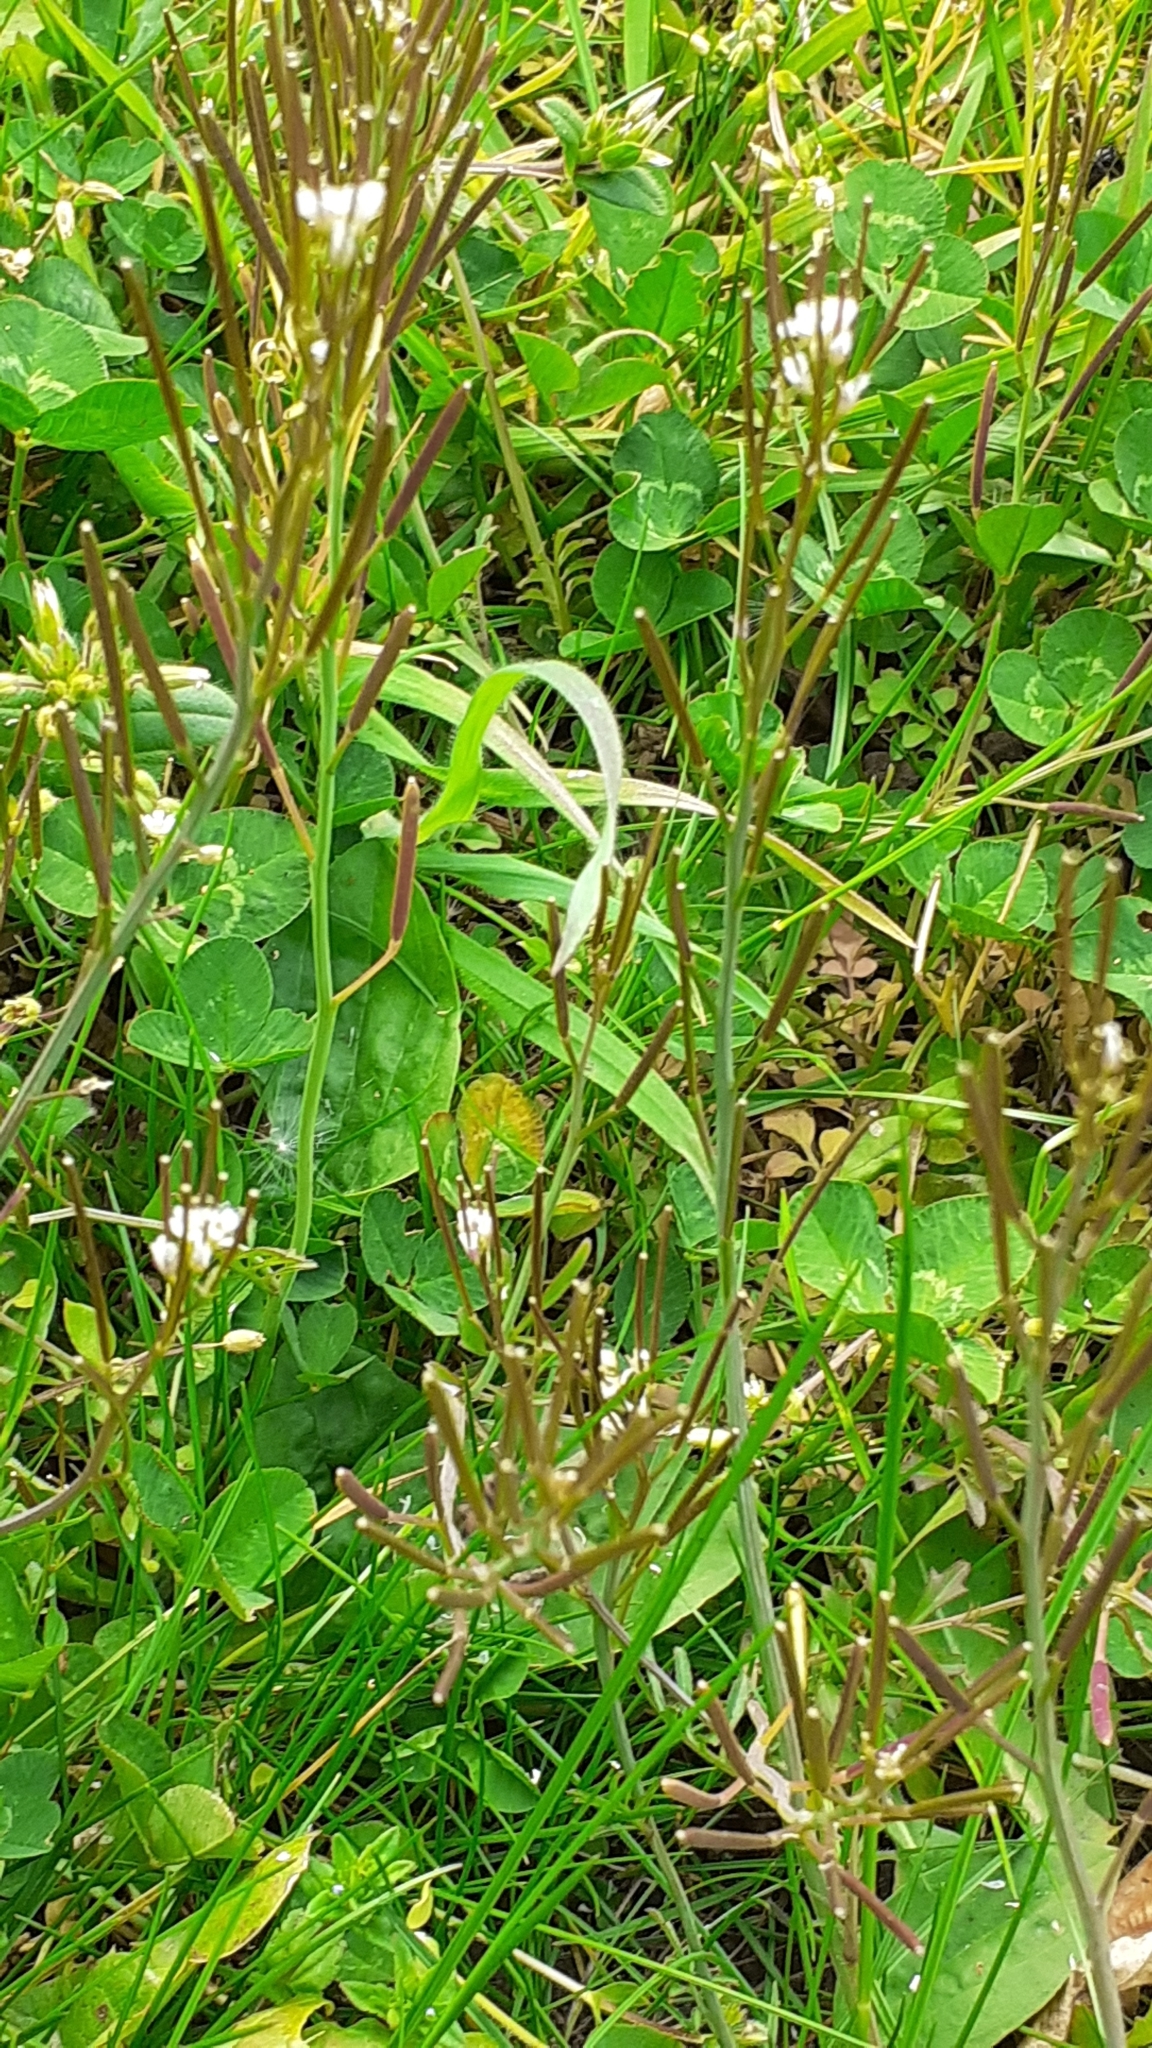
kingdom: Plantae
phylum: Tracheophyta
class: Magnoliopsida
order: Brassicales
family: Brassicaceae
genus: Cardamine
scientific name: Cardamine hirsuta
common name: Hairy bittercress
